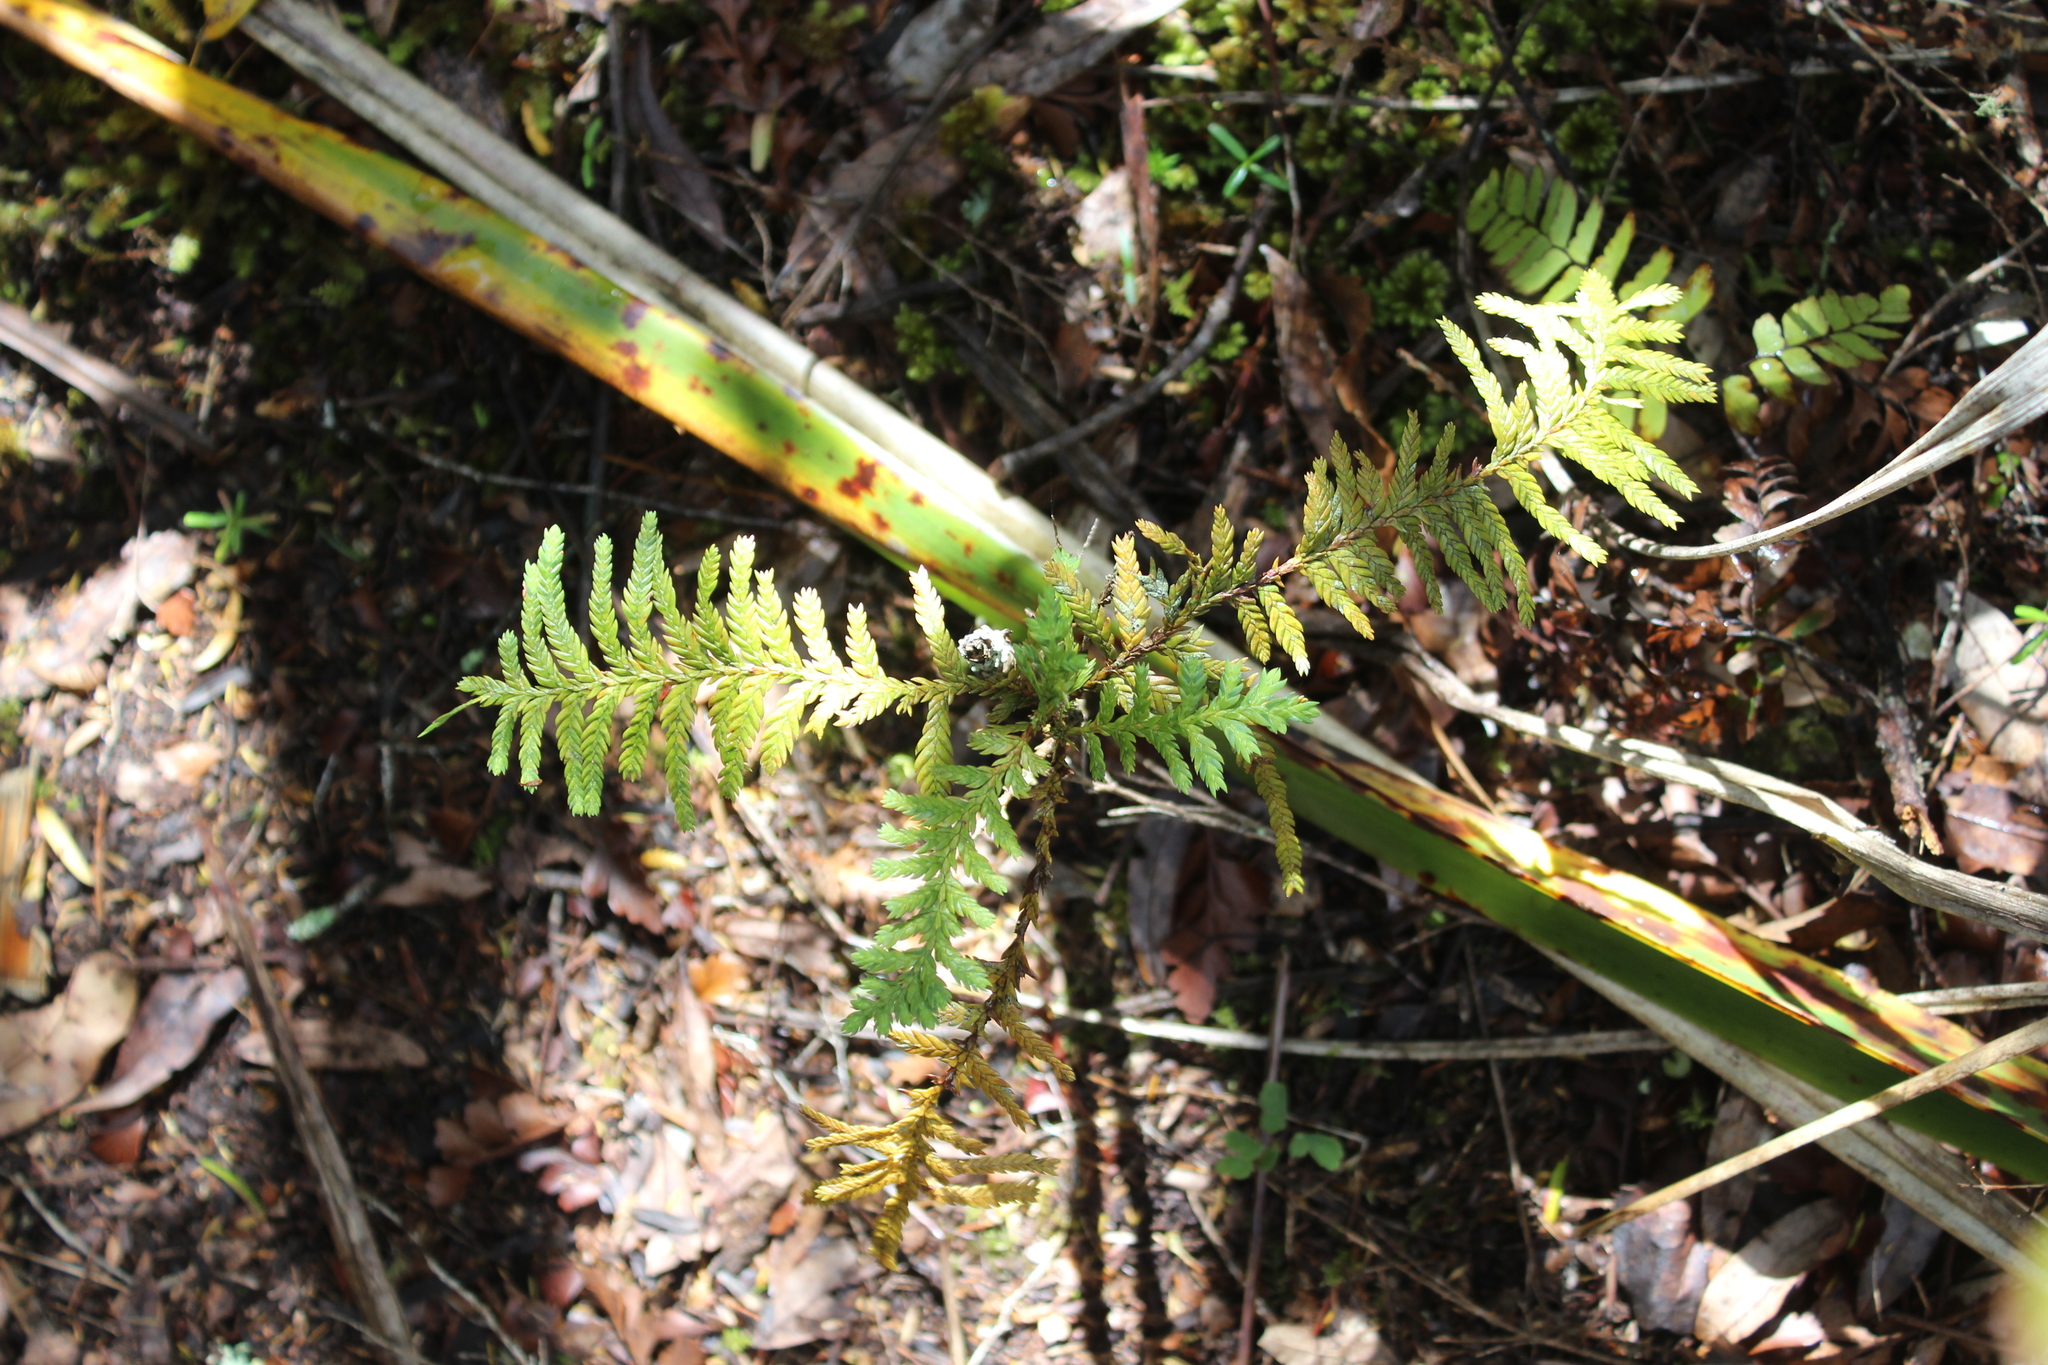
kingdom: Plantae
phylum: Tracheophyta
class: Pinopsida
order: Pinales
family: Cupressaceae
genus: Libocedrus
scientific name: Libocedrus plumosa
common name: New zealand cedar
